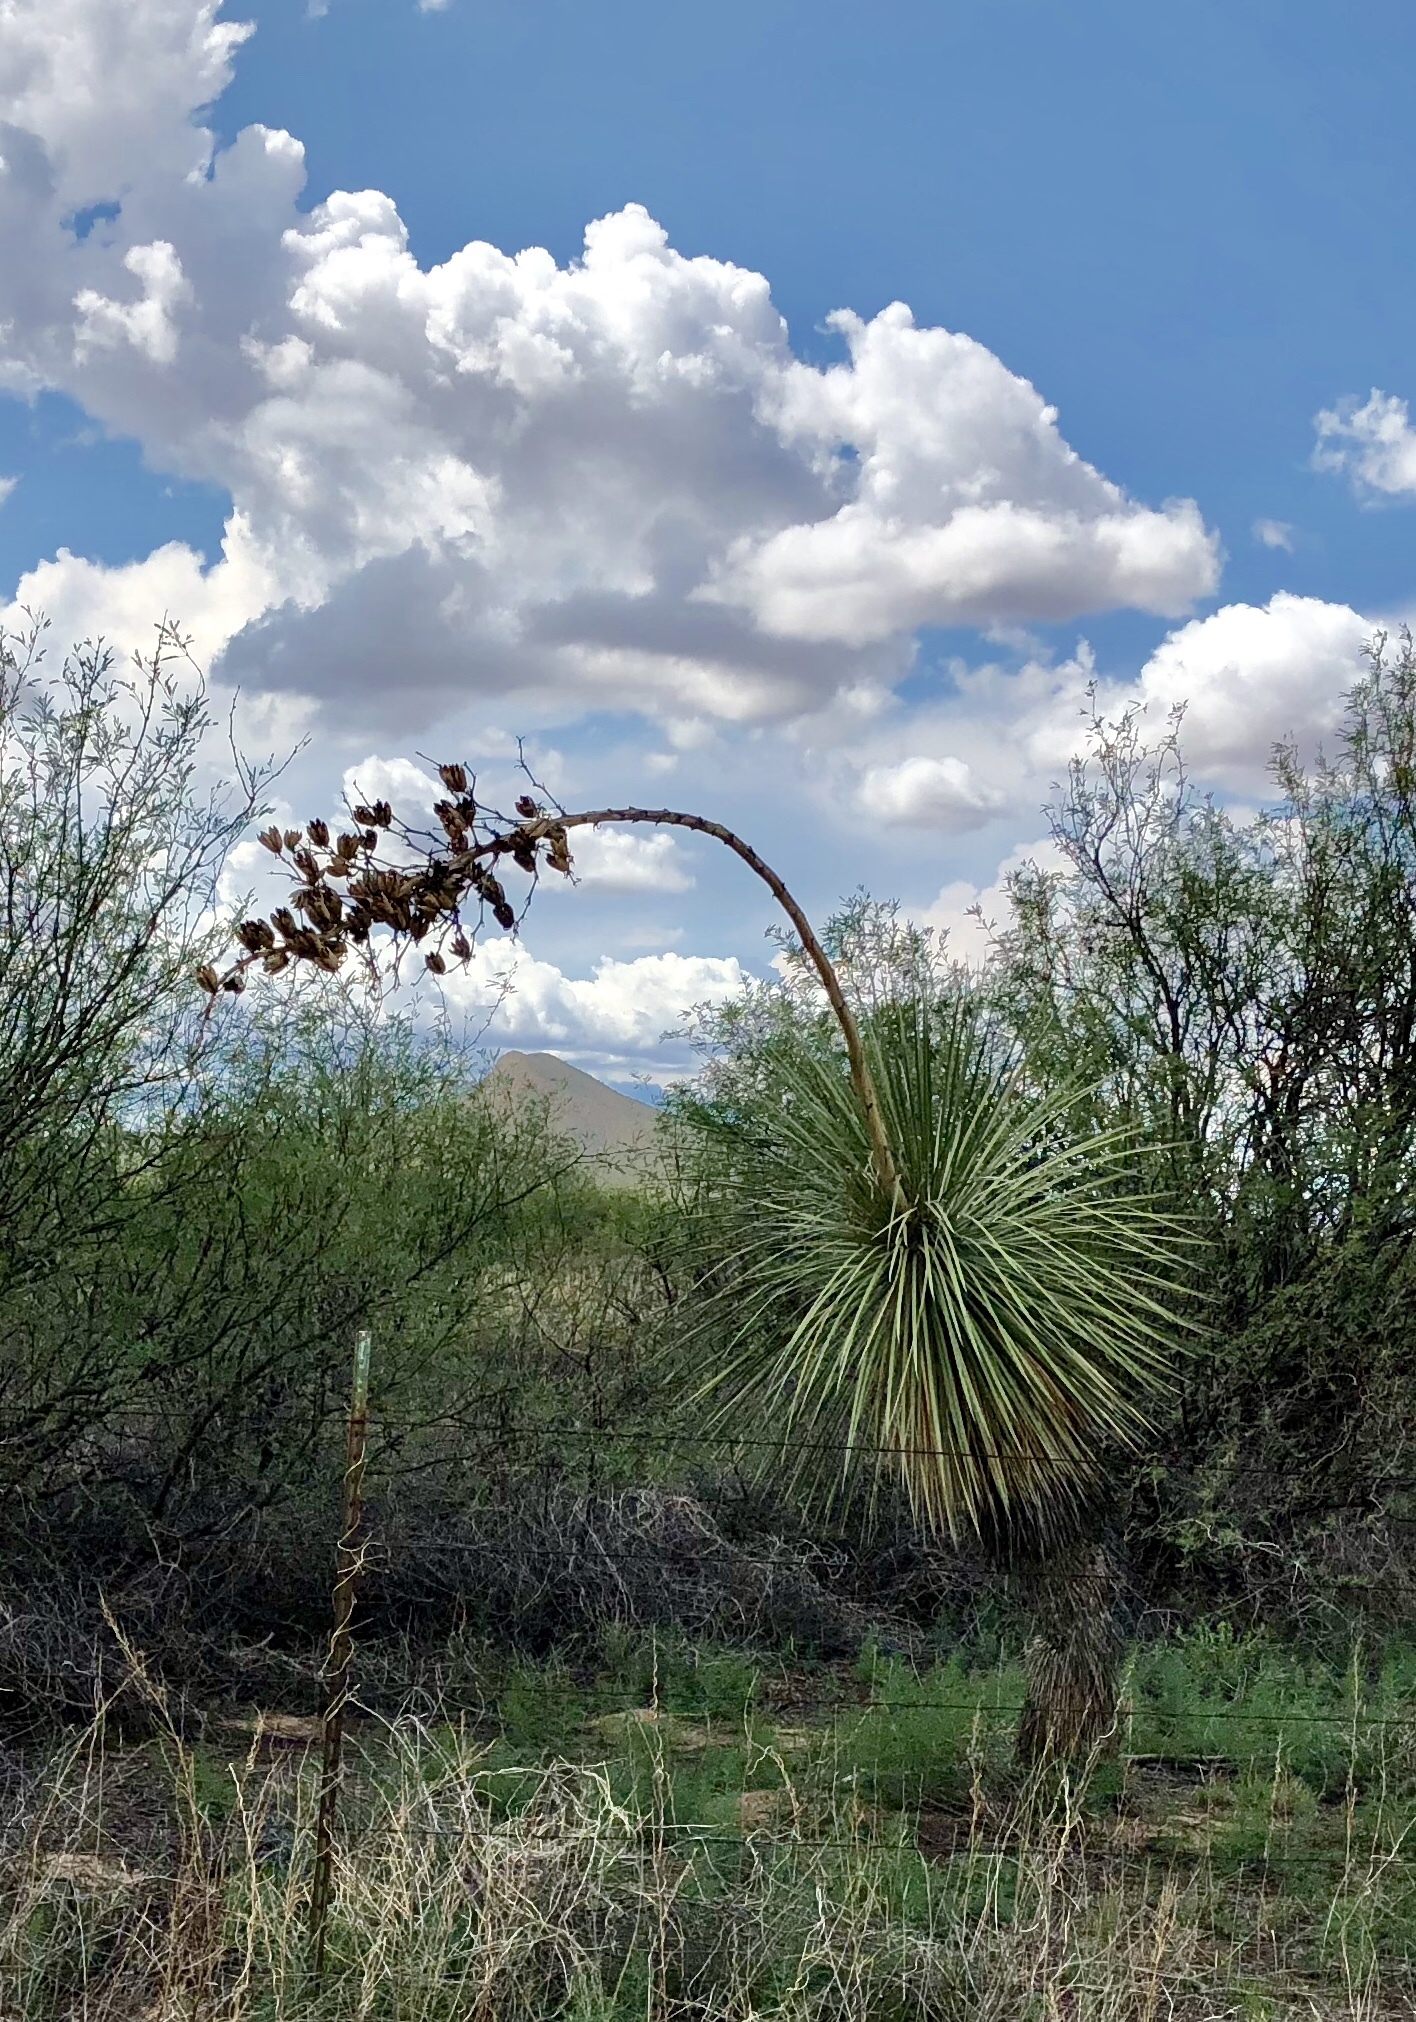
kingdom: Plantae
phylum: Tracheophyta
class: Liliopsida
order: Asparagales
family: Asparagaceae
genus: Yucca
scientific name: Yucca elata
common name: Palmella
